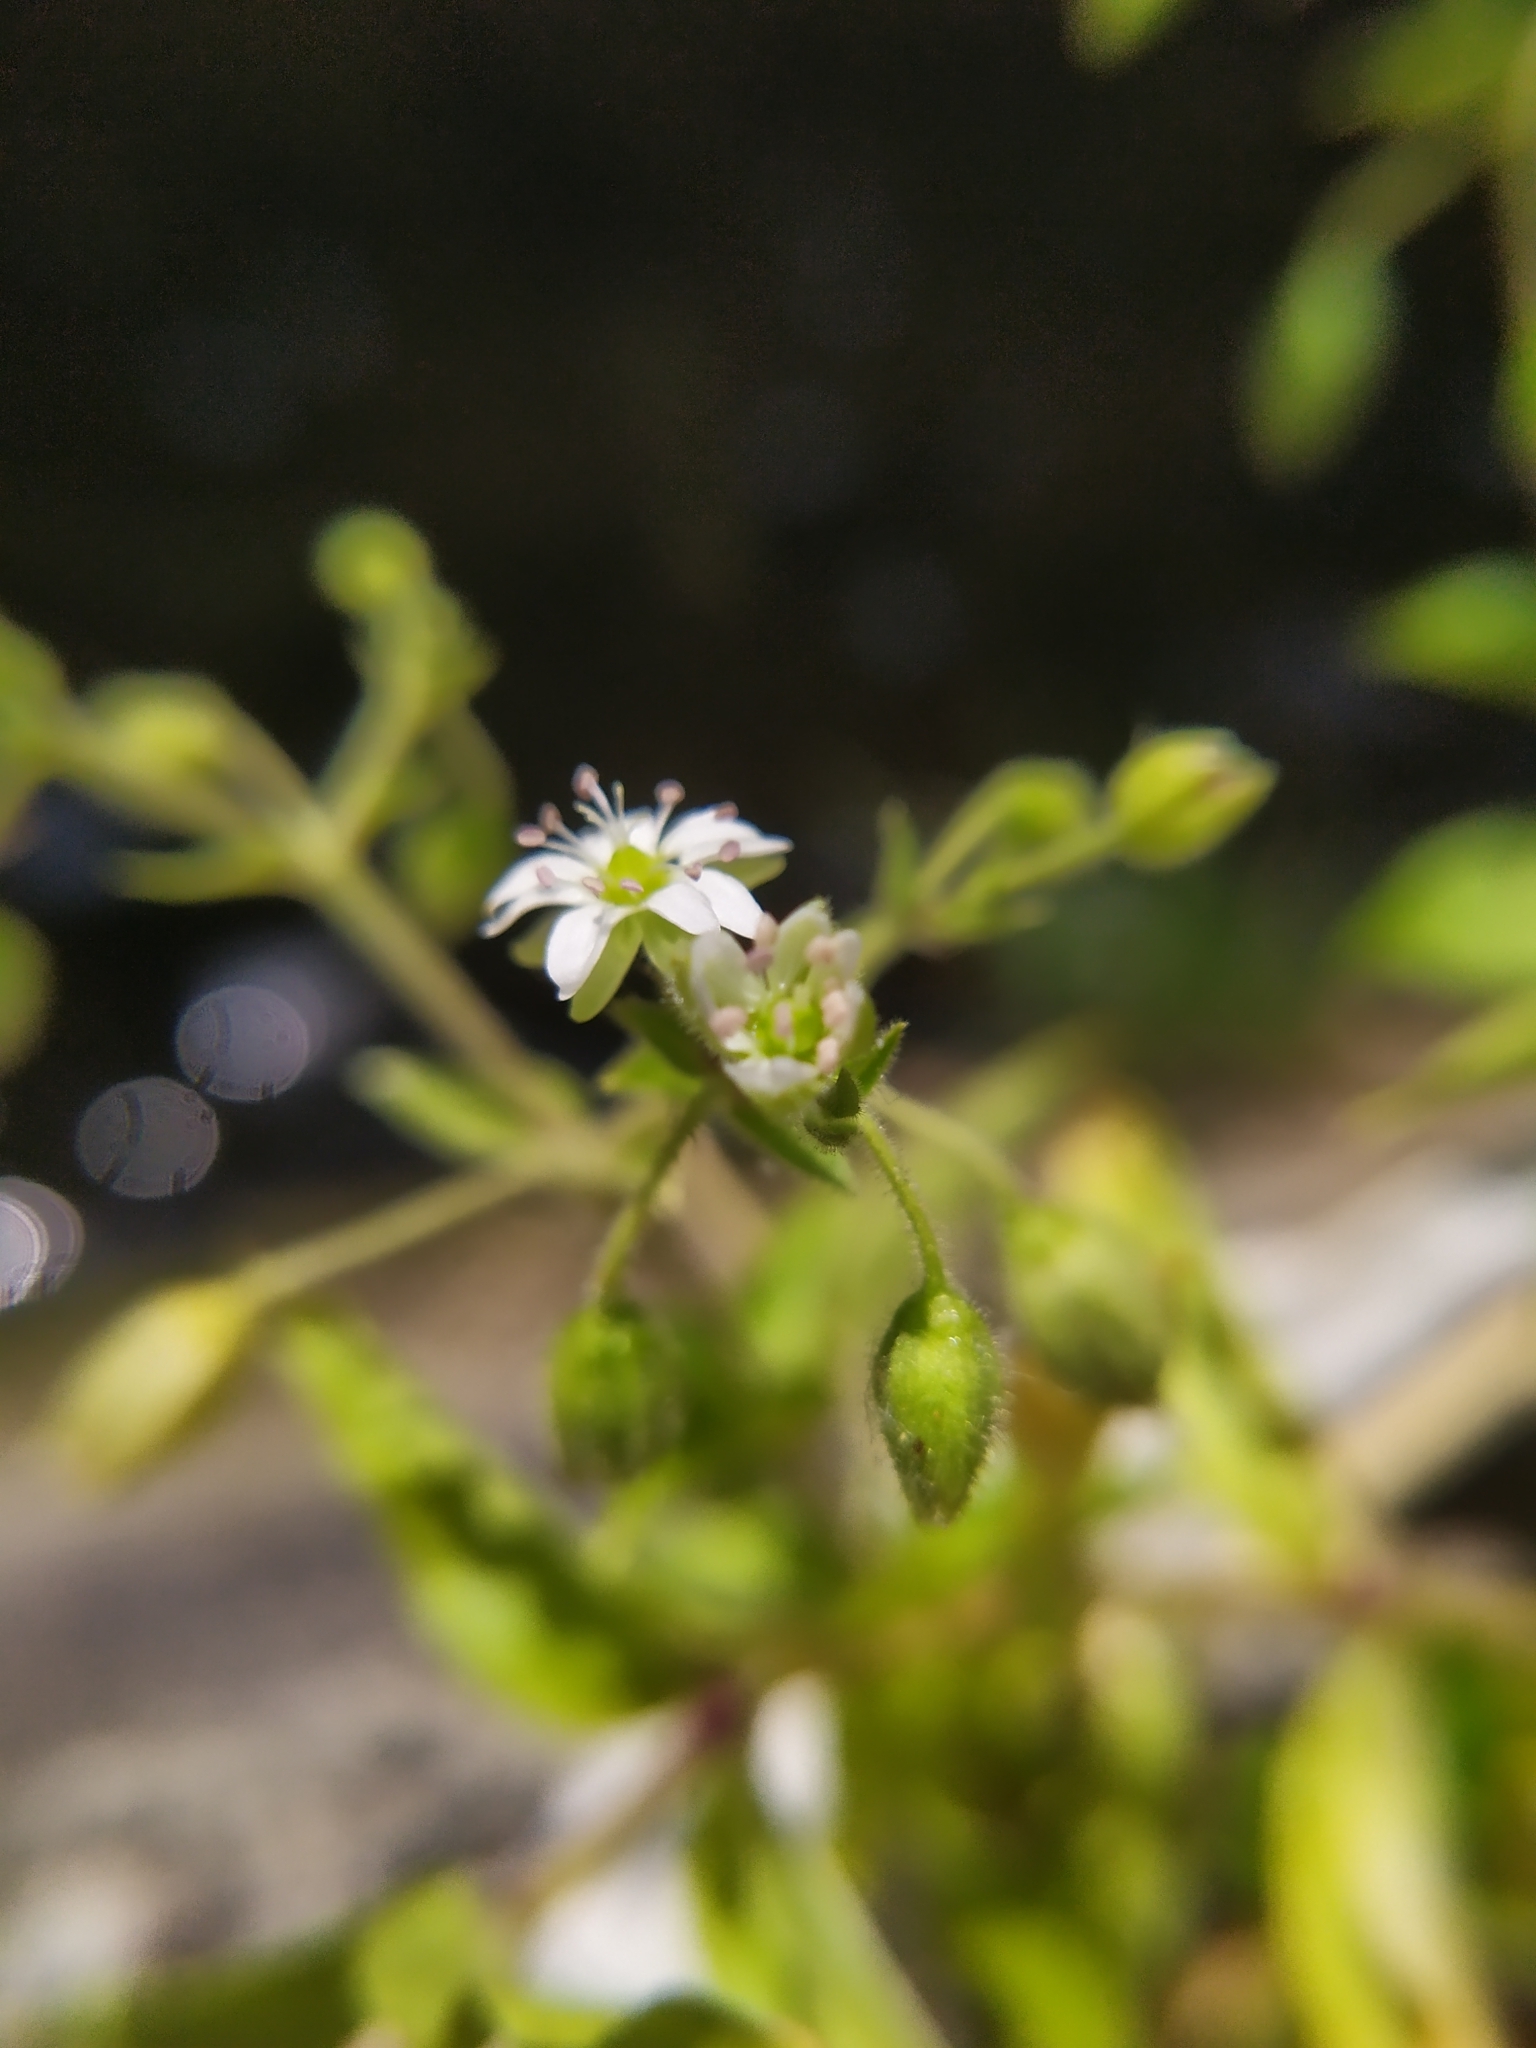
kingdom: Plantae
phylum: Tracheophyta
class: Magnoliopsida
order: Caryophyllales
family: Caryophyllaceae
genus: Stellaria
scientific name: Stellaria aquatica
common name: Water chickweed
